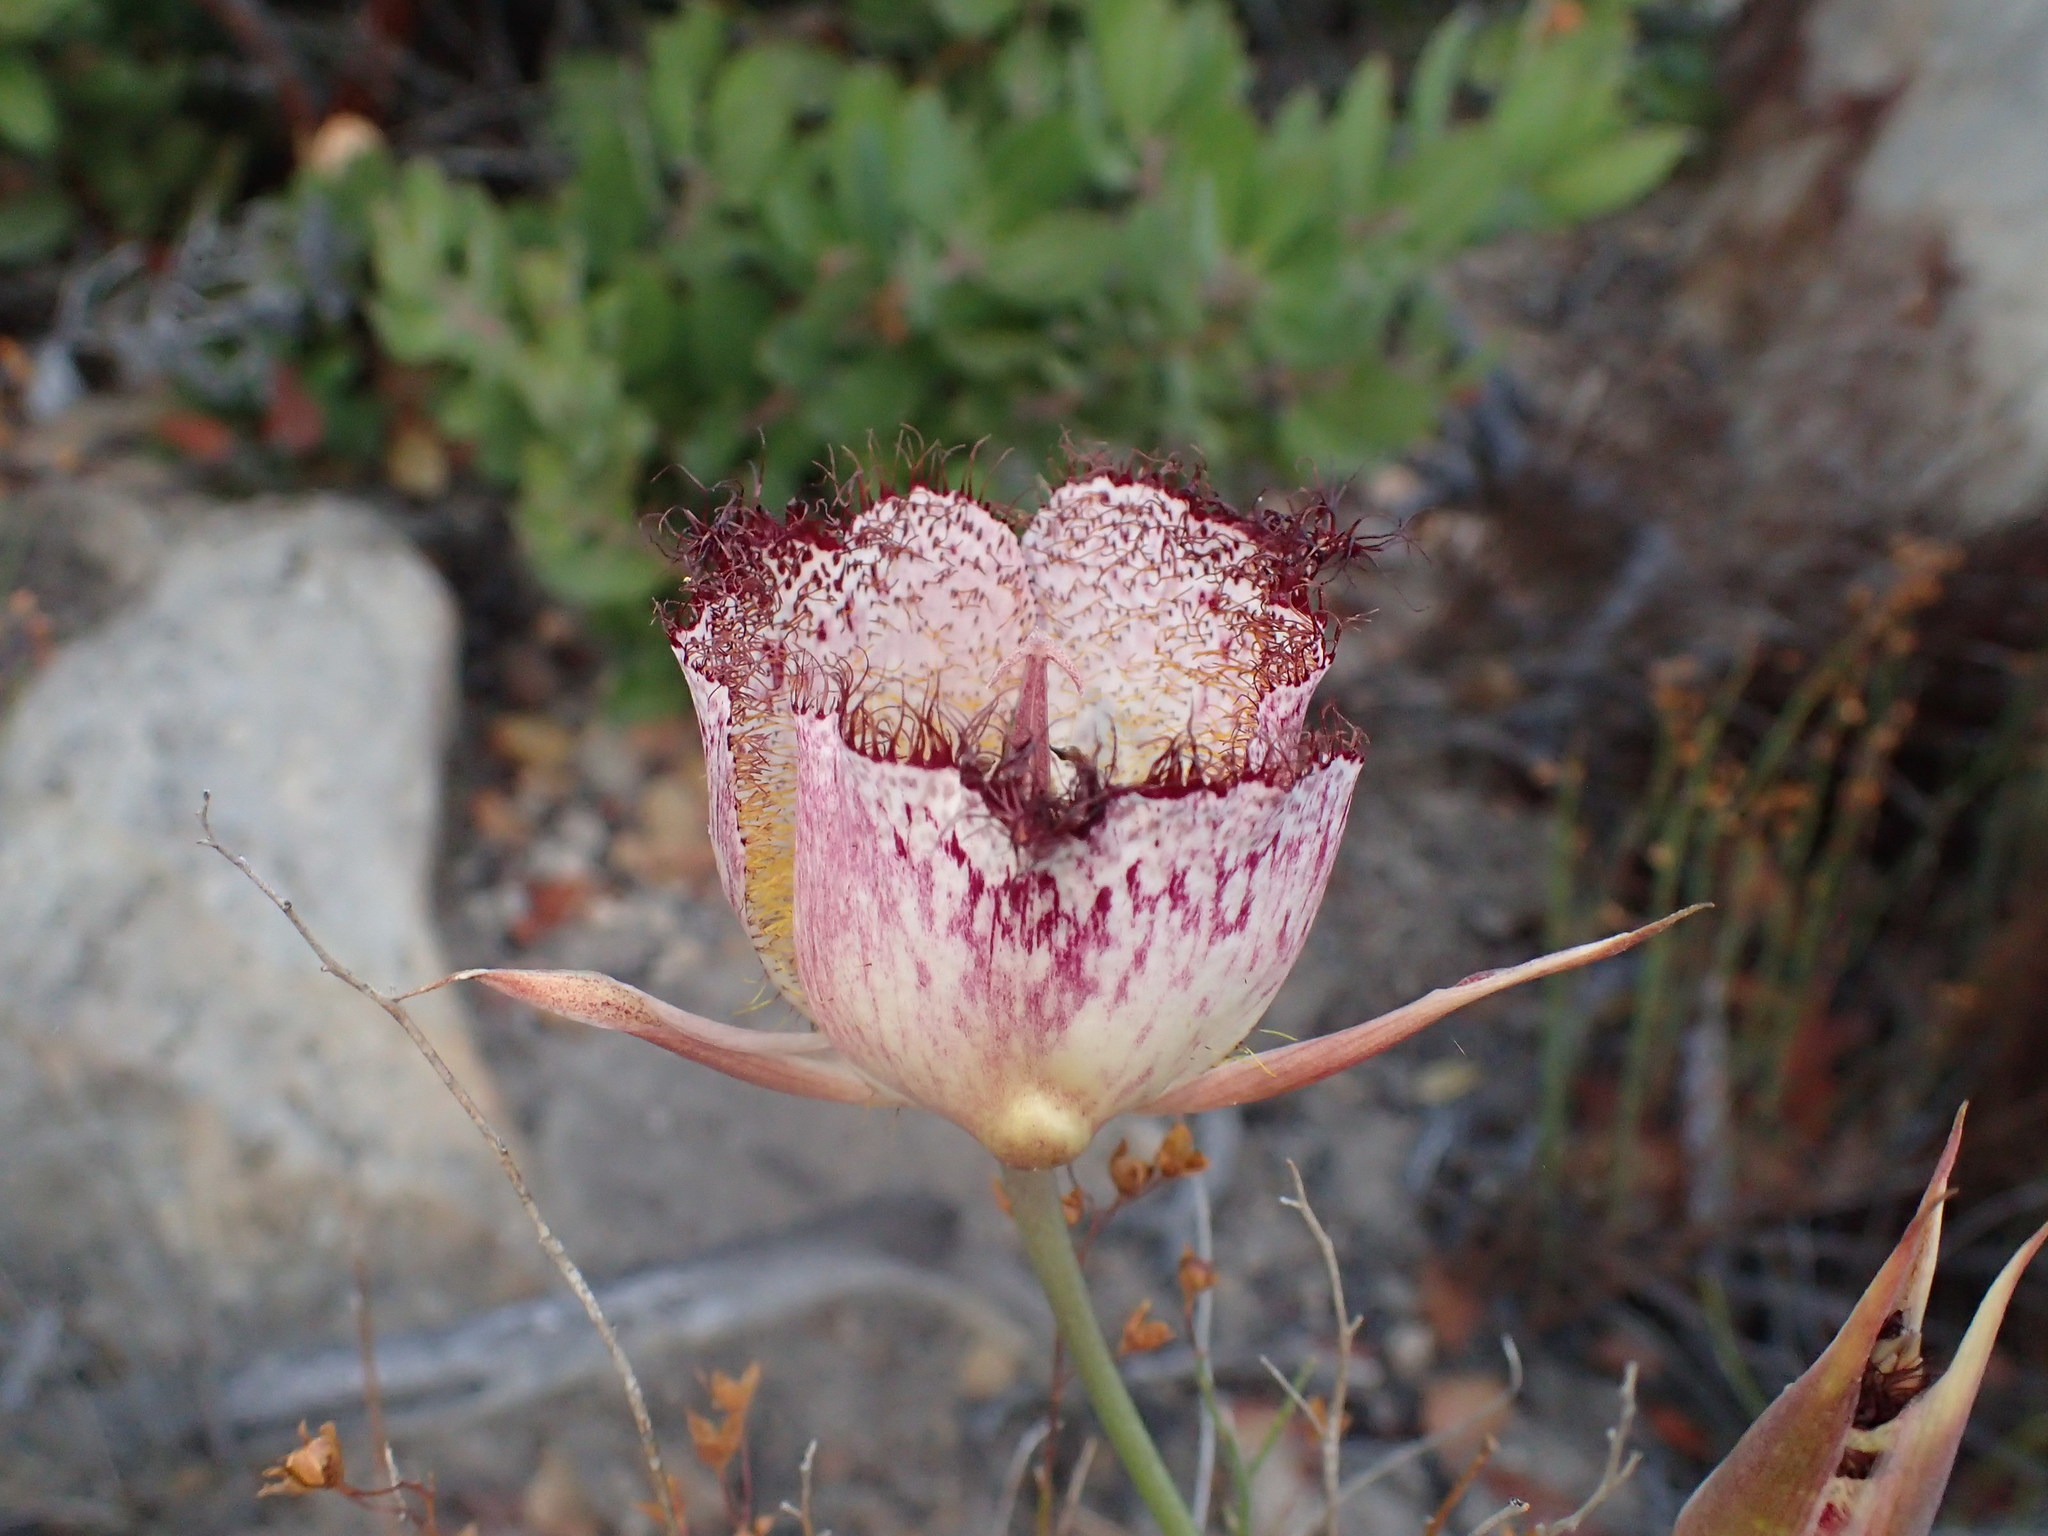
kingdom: Plantae
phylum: Tracheophyta
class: Liliopsida
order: Liliales
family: Liliaceae
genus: Calochortus
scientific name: Calochortus fimbriatus
